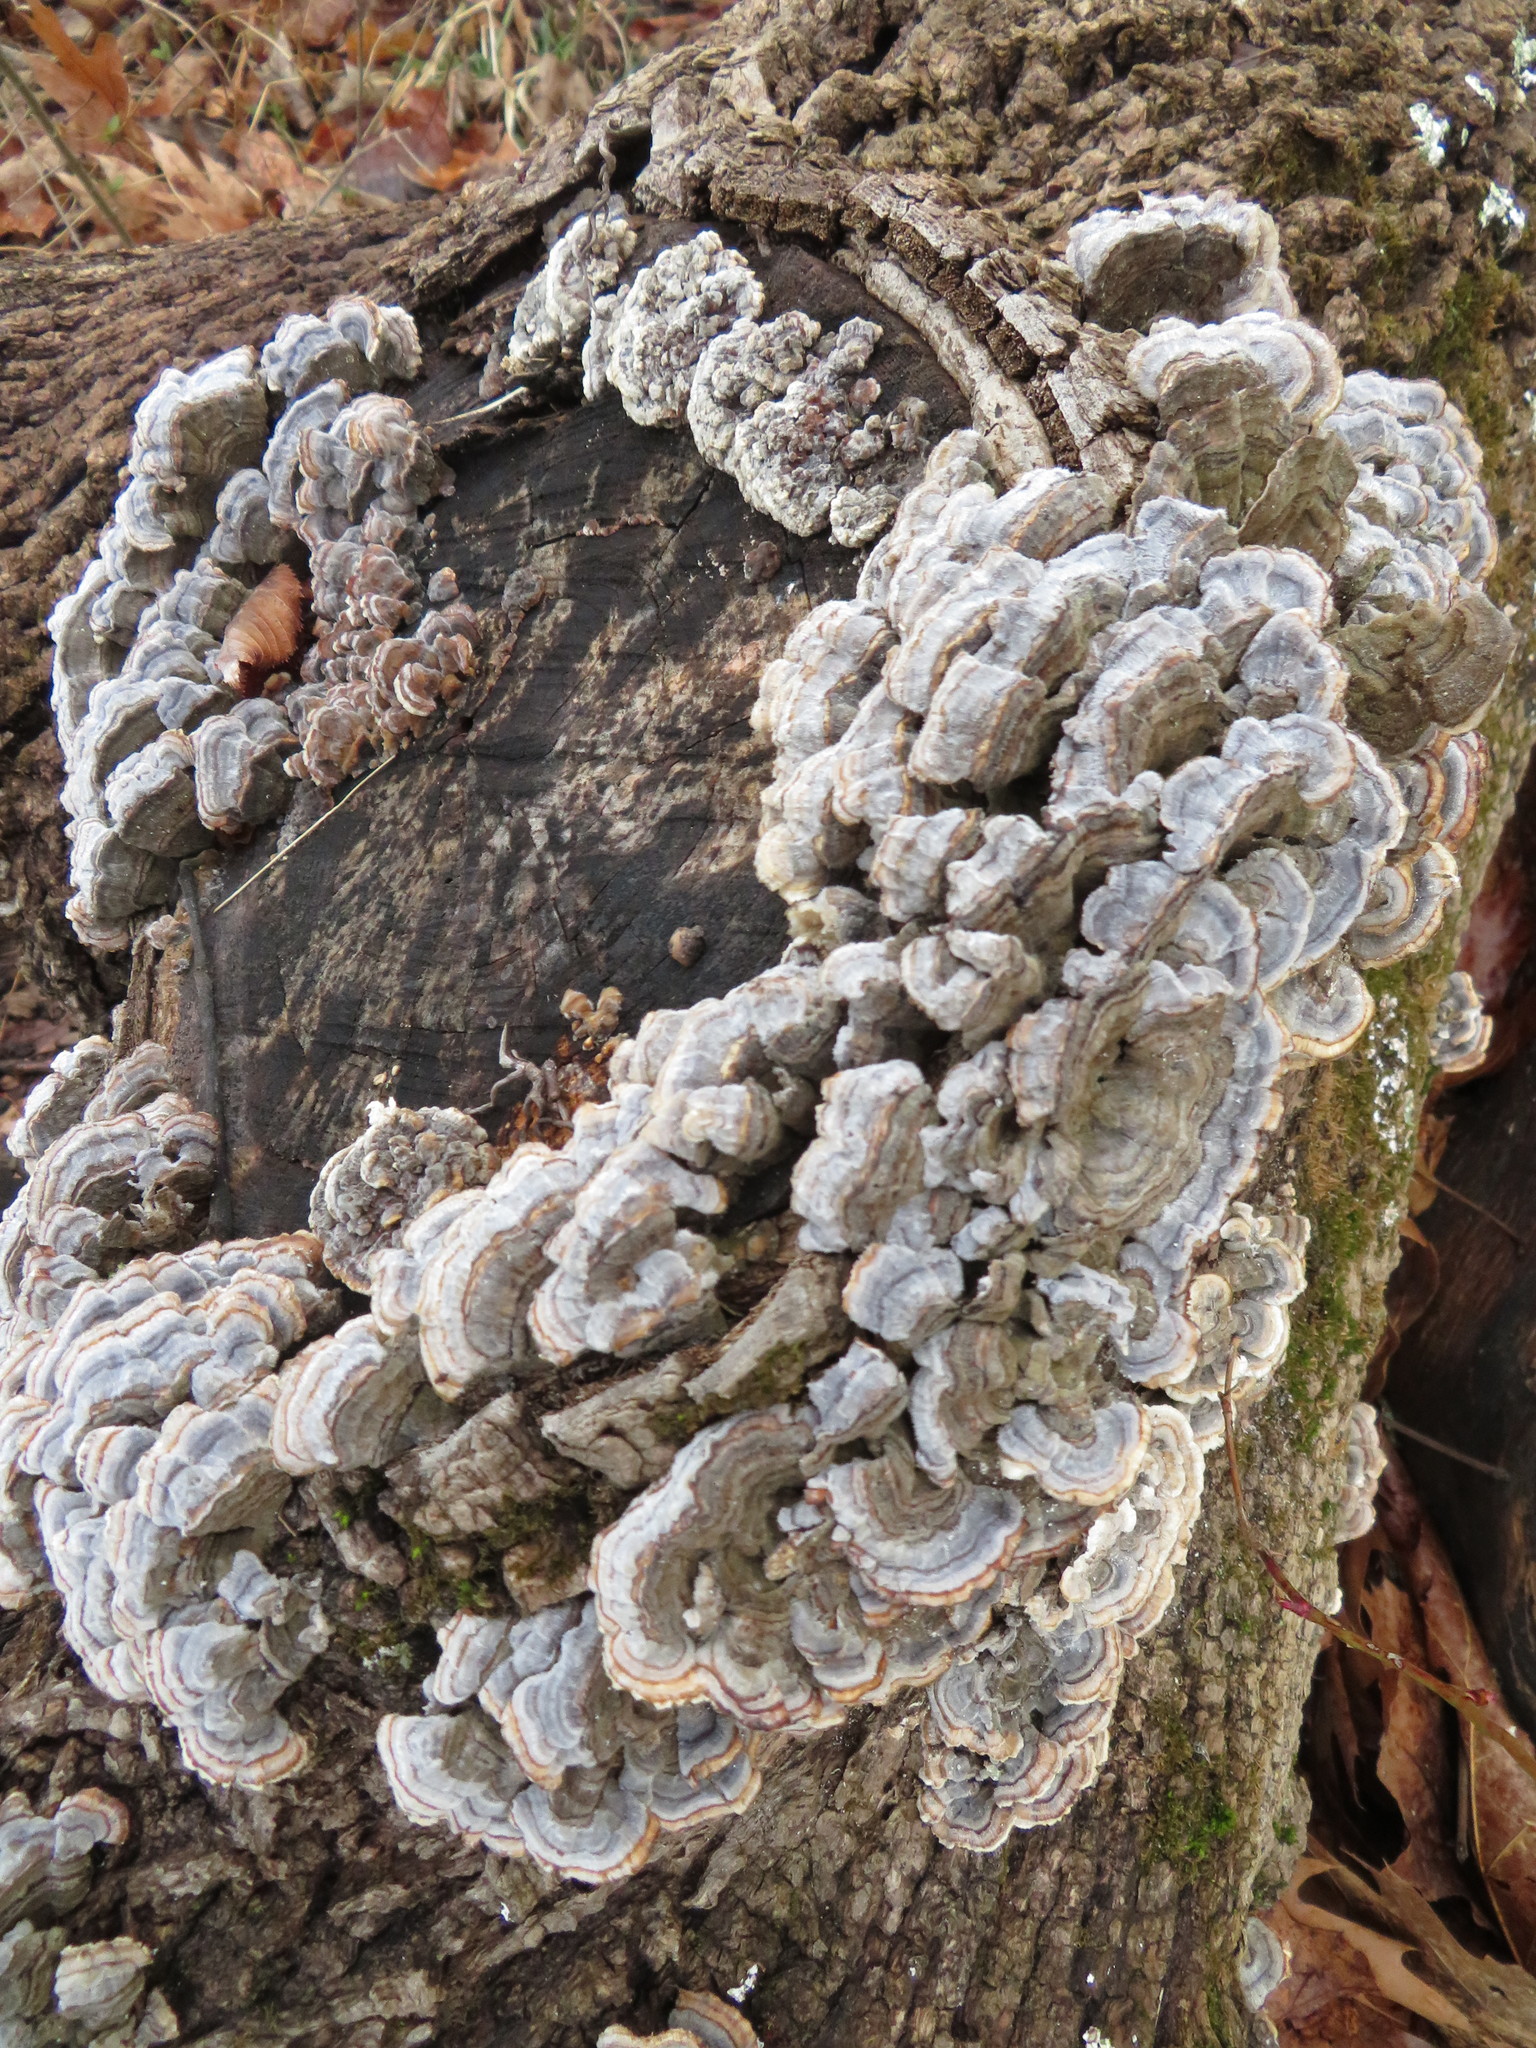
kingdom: Fungi
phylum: Basidiomycota
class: Agaricomycetes
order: Polyporales
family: Polyporaceae
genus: Trametes
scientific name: Trametes versicolor
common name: Turkeytail
